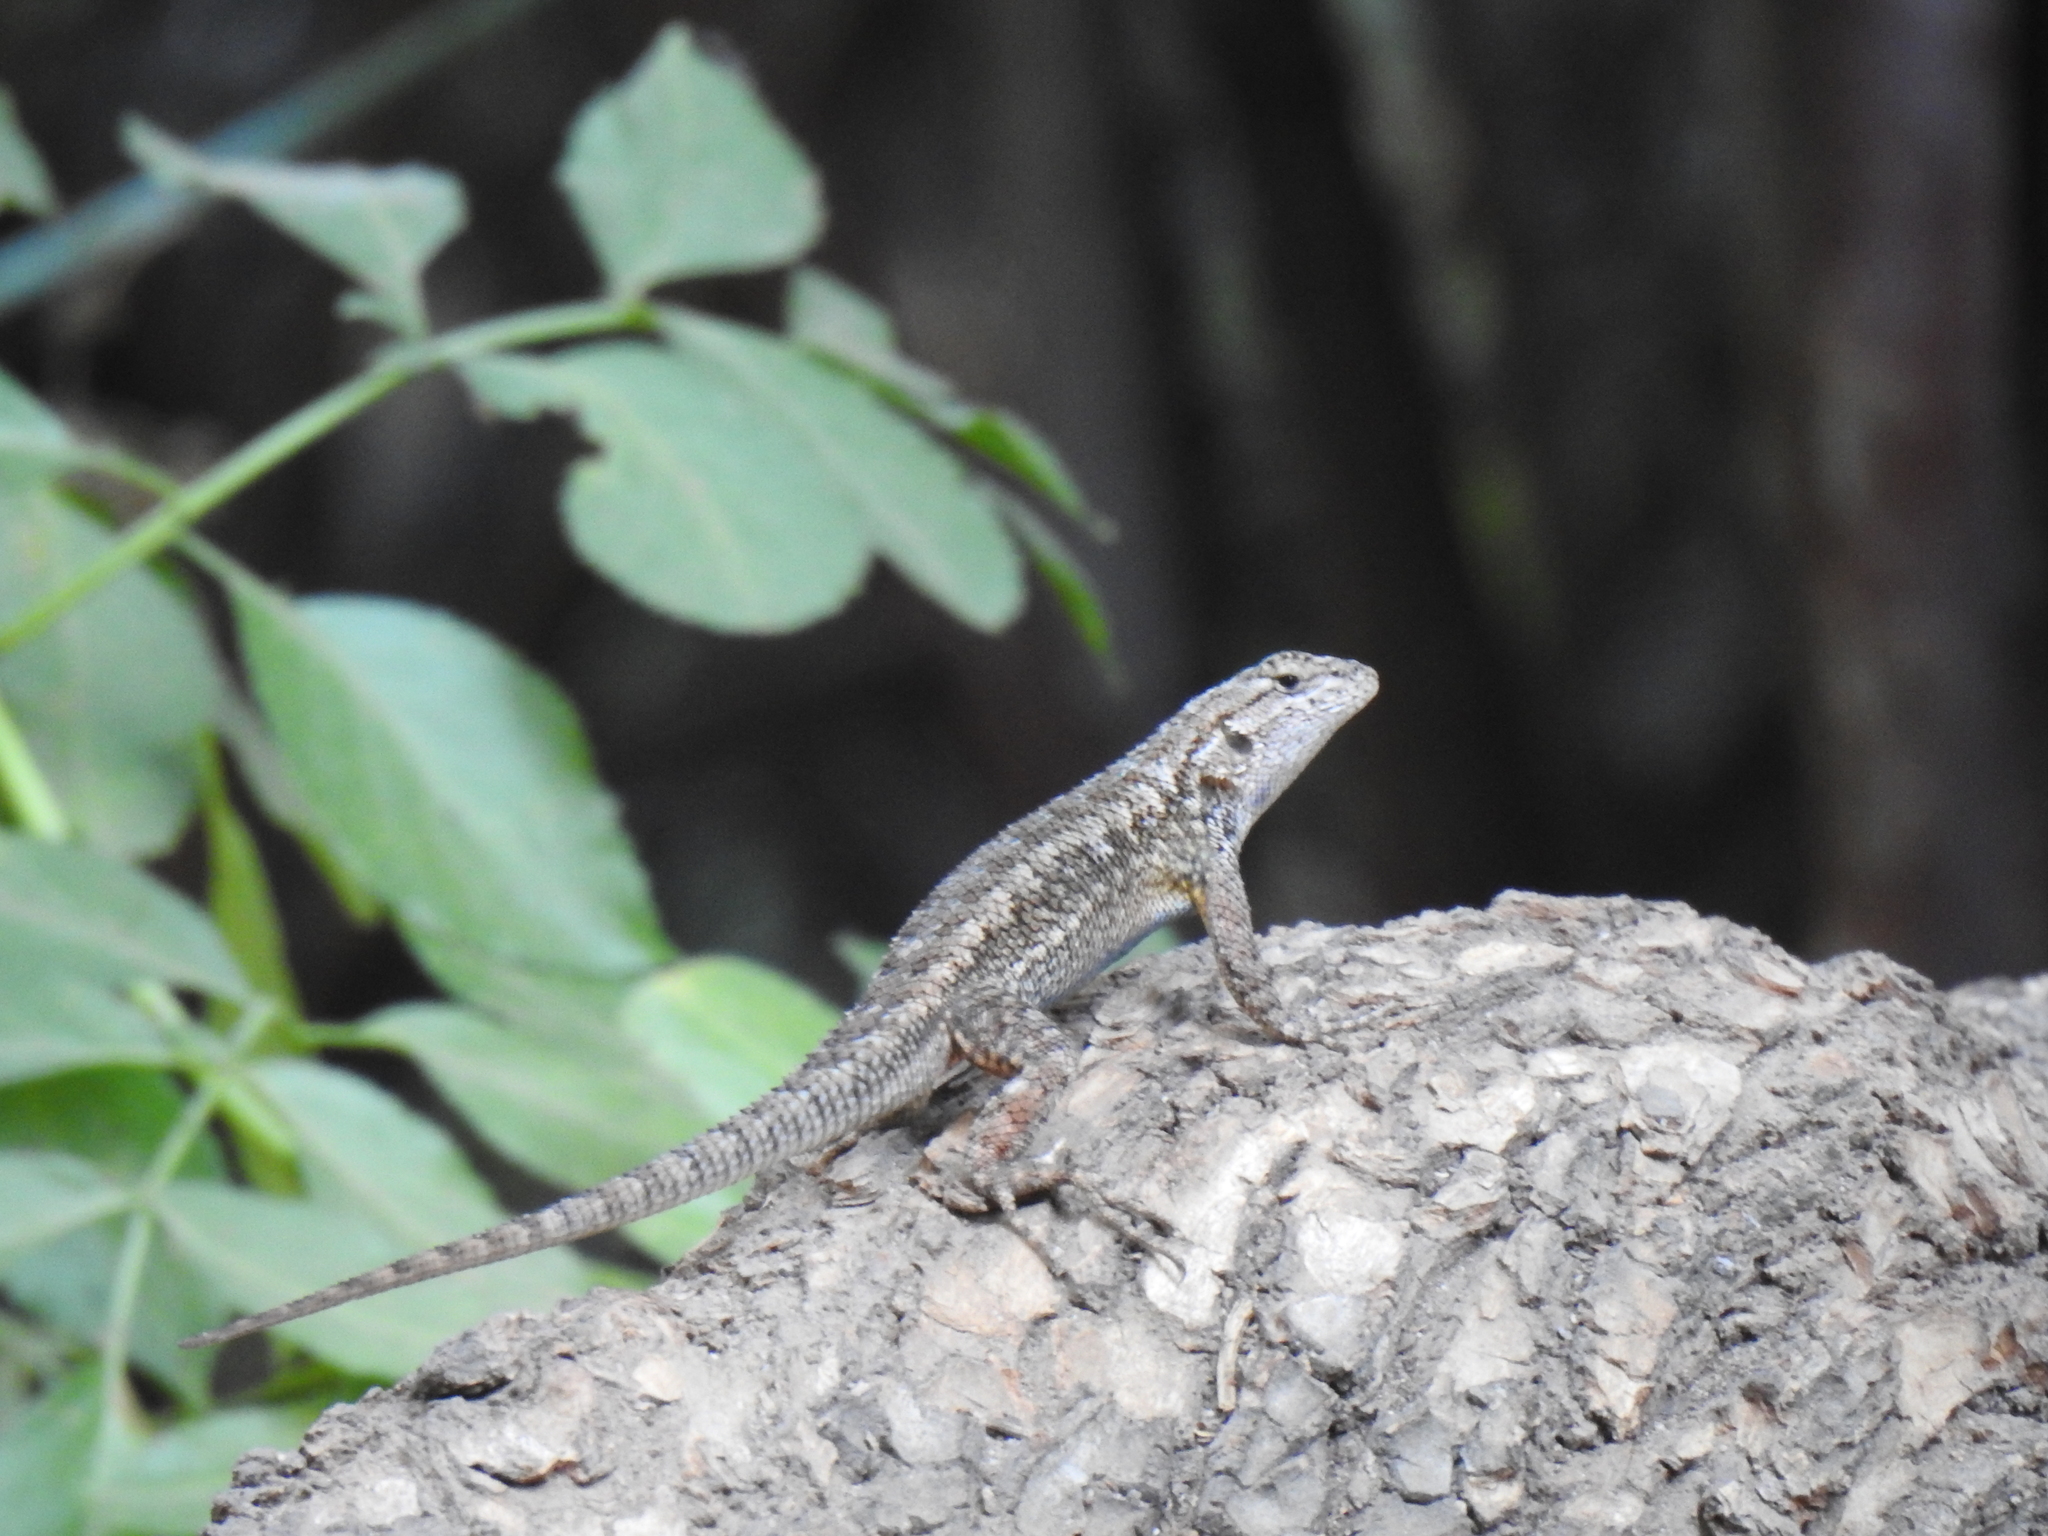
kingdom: Animalia
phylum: Chordata
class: Squamata
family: Phrynosomatidae
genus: Sceloporus
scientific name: Sceloporus occidentalis
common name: Western fence lizard
